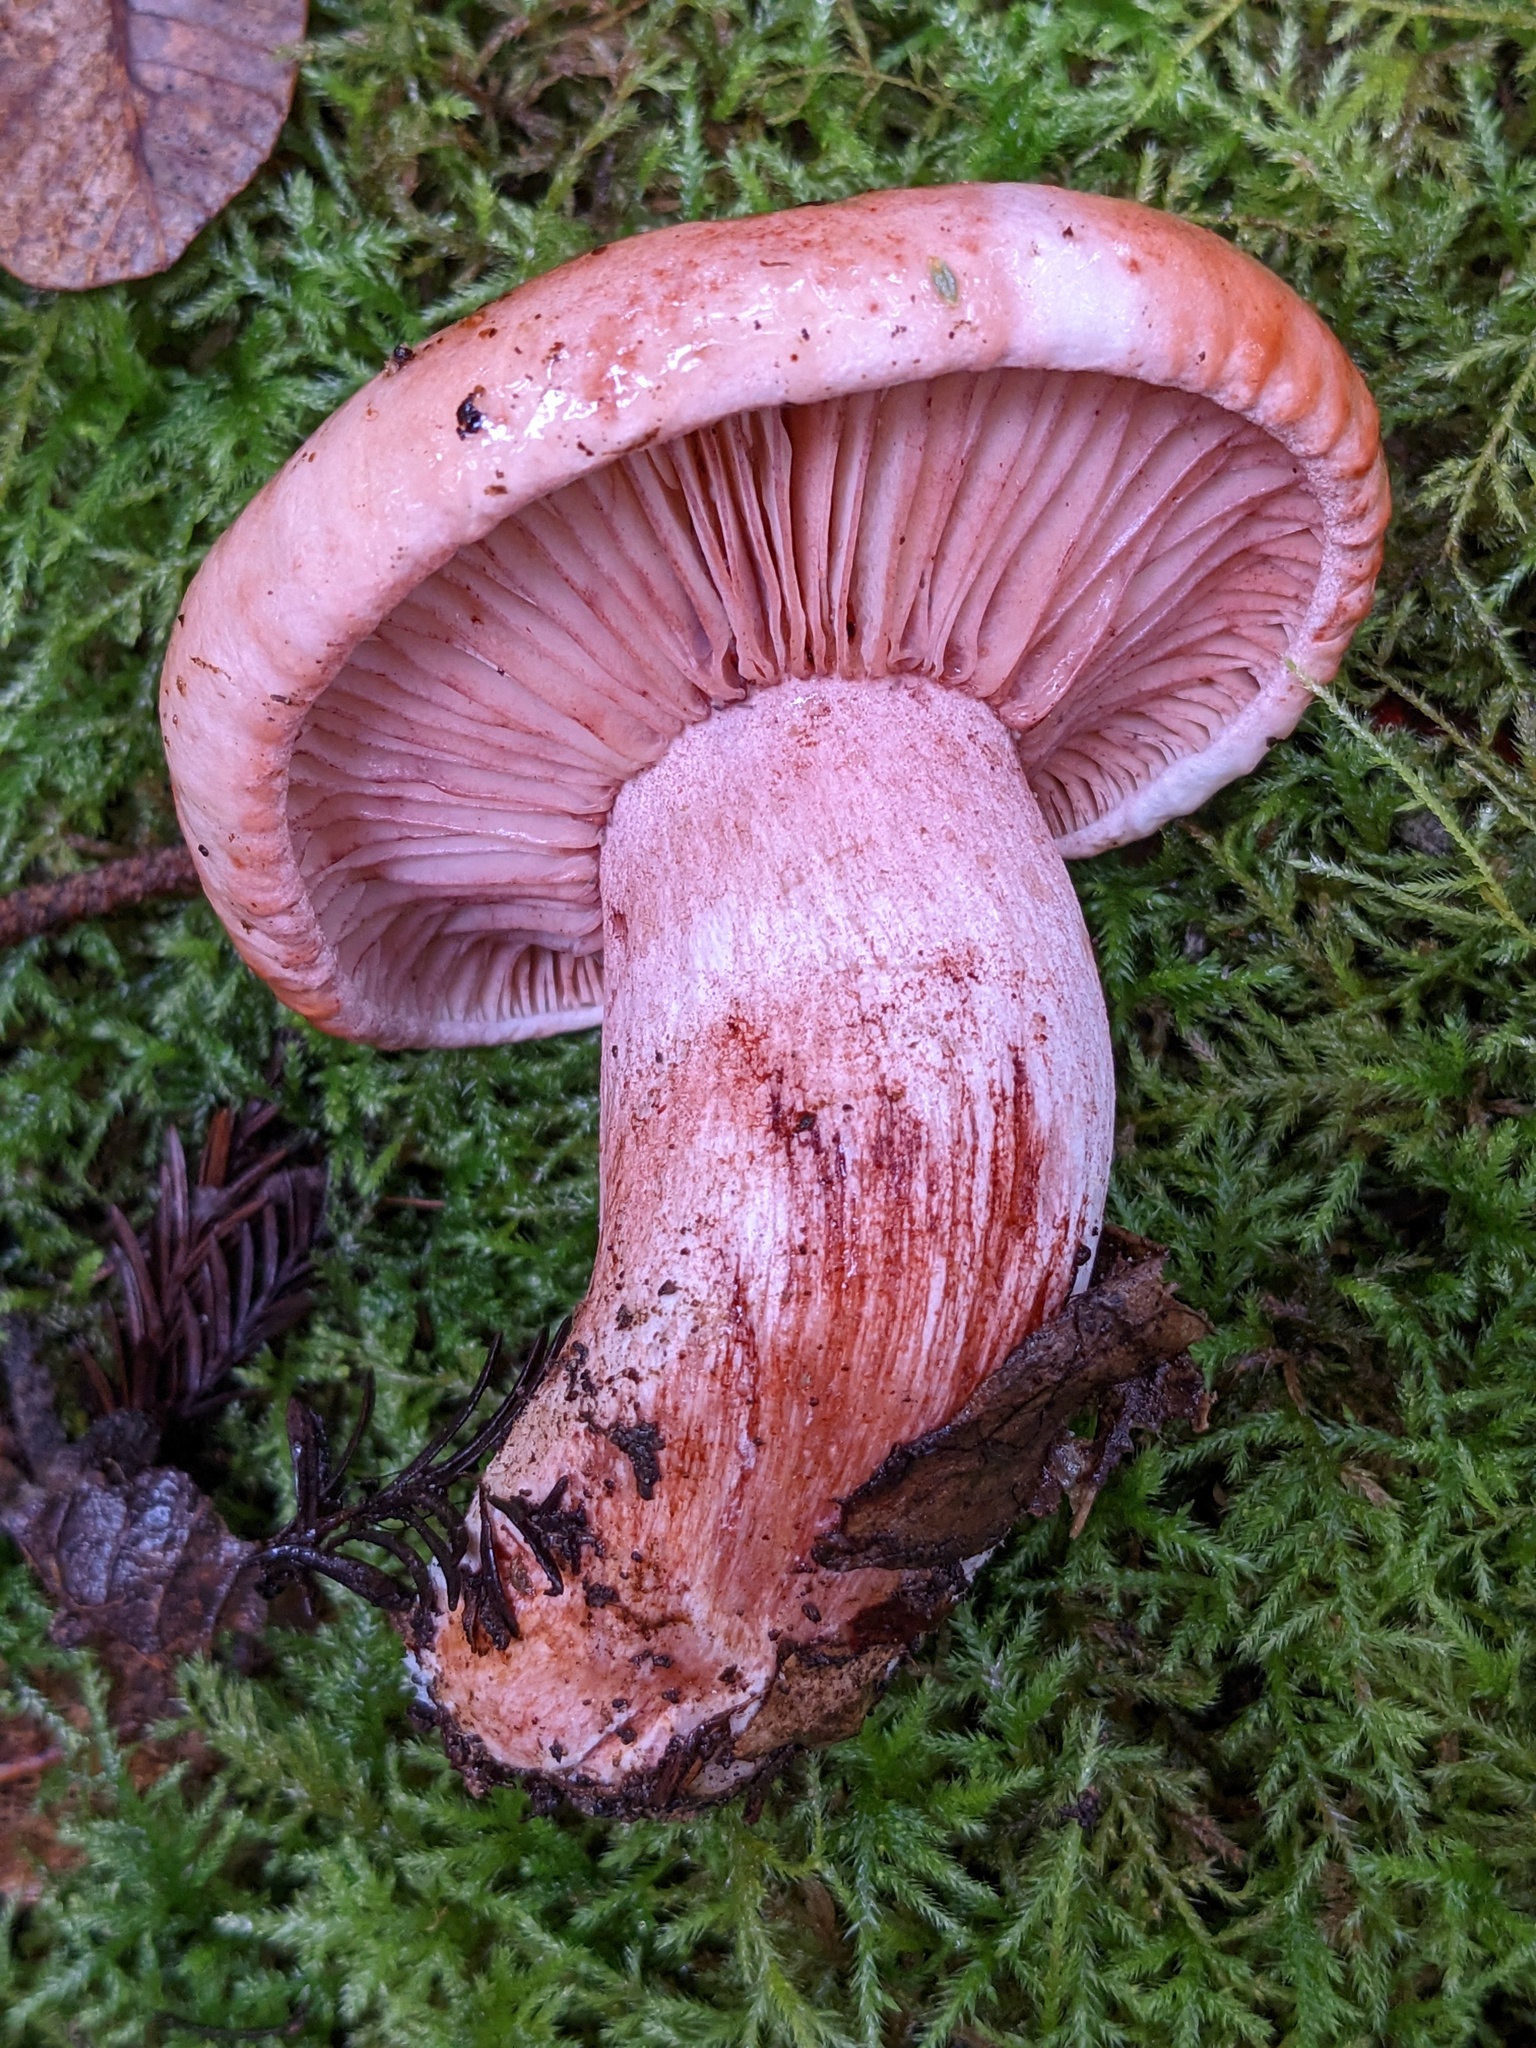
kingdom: Fungi
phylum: Basidiomycota
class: Agaricomycetes
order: Agaricales
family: Hygrophoraceae
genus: Hygrophorus
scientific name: Hygrophorus russula
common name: Pinkmottle woodwax
